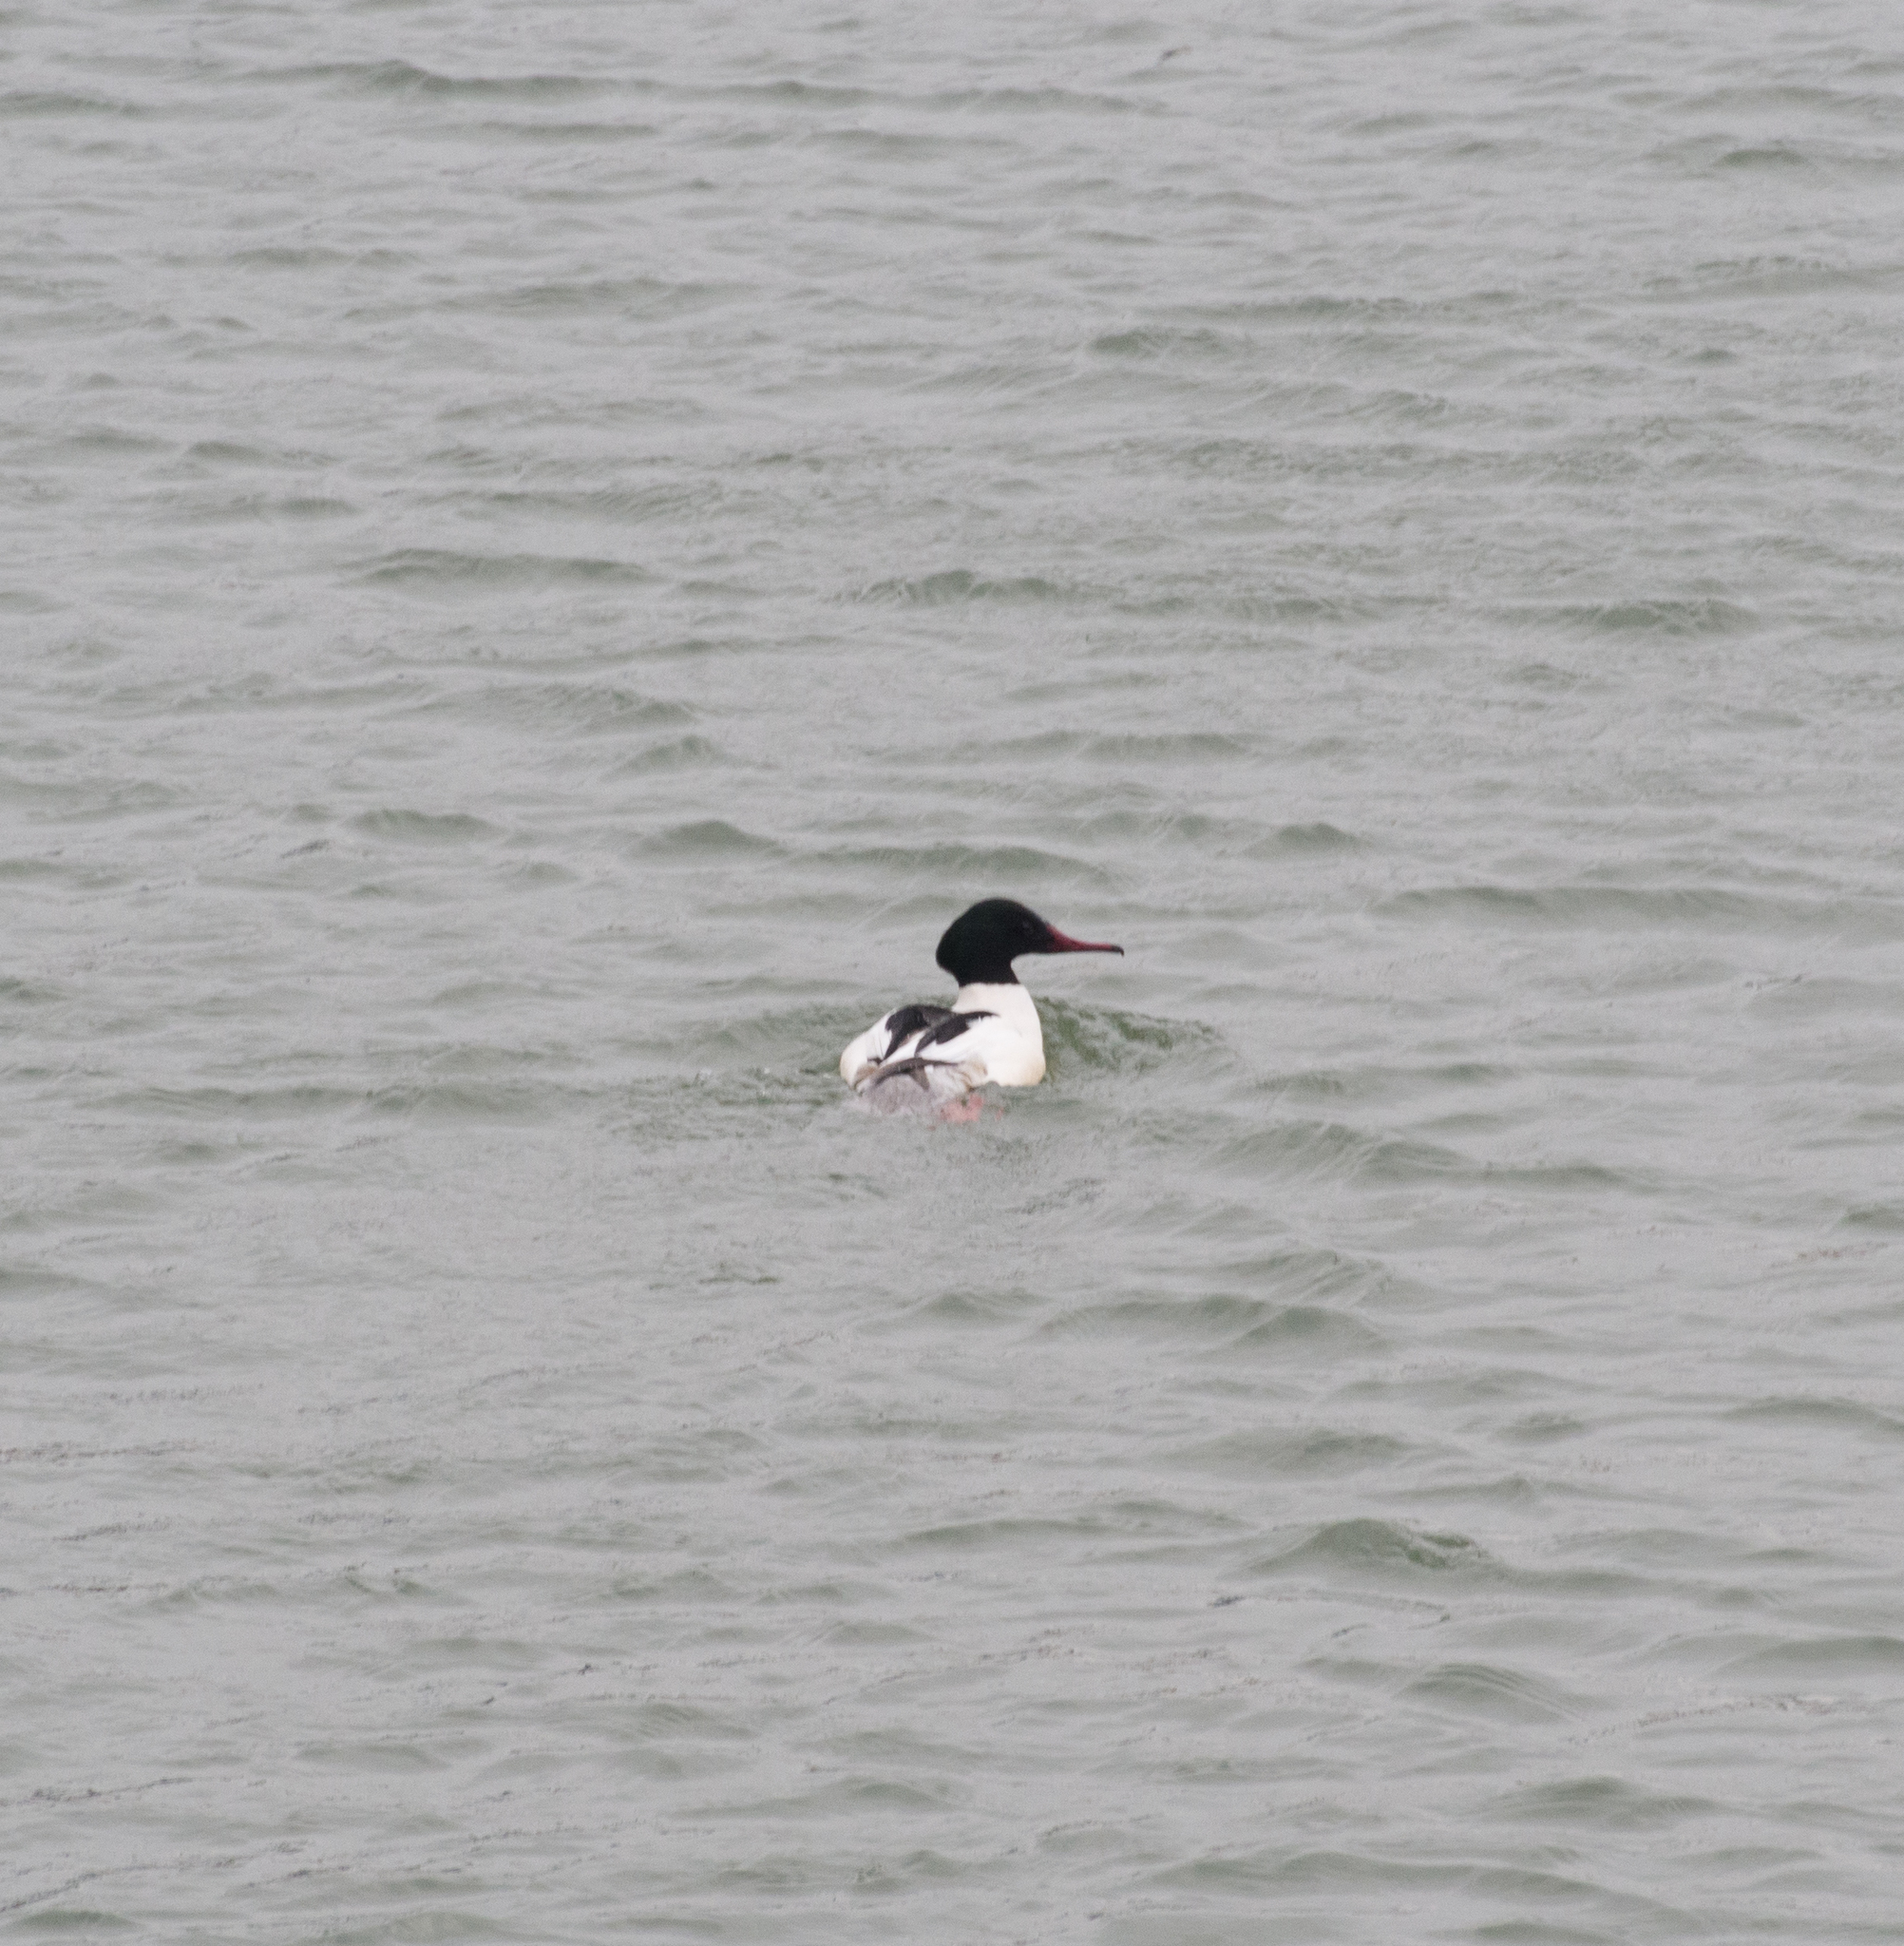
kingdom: Animalia
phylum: Chordata
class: Aves
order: Anseriformes
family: Anatidae
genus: Mergus
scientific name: Mergus merganser
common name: Common merganser
